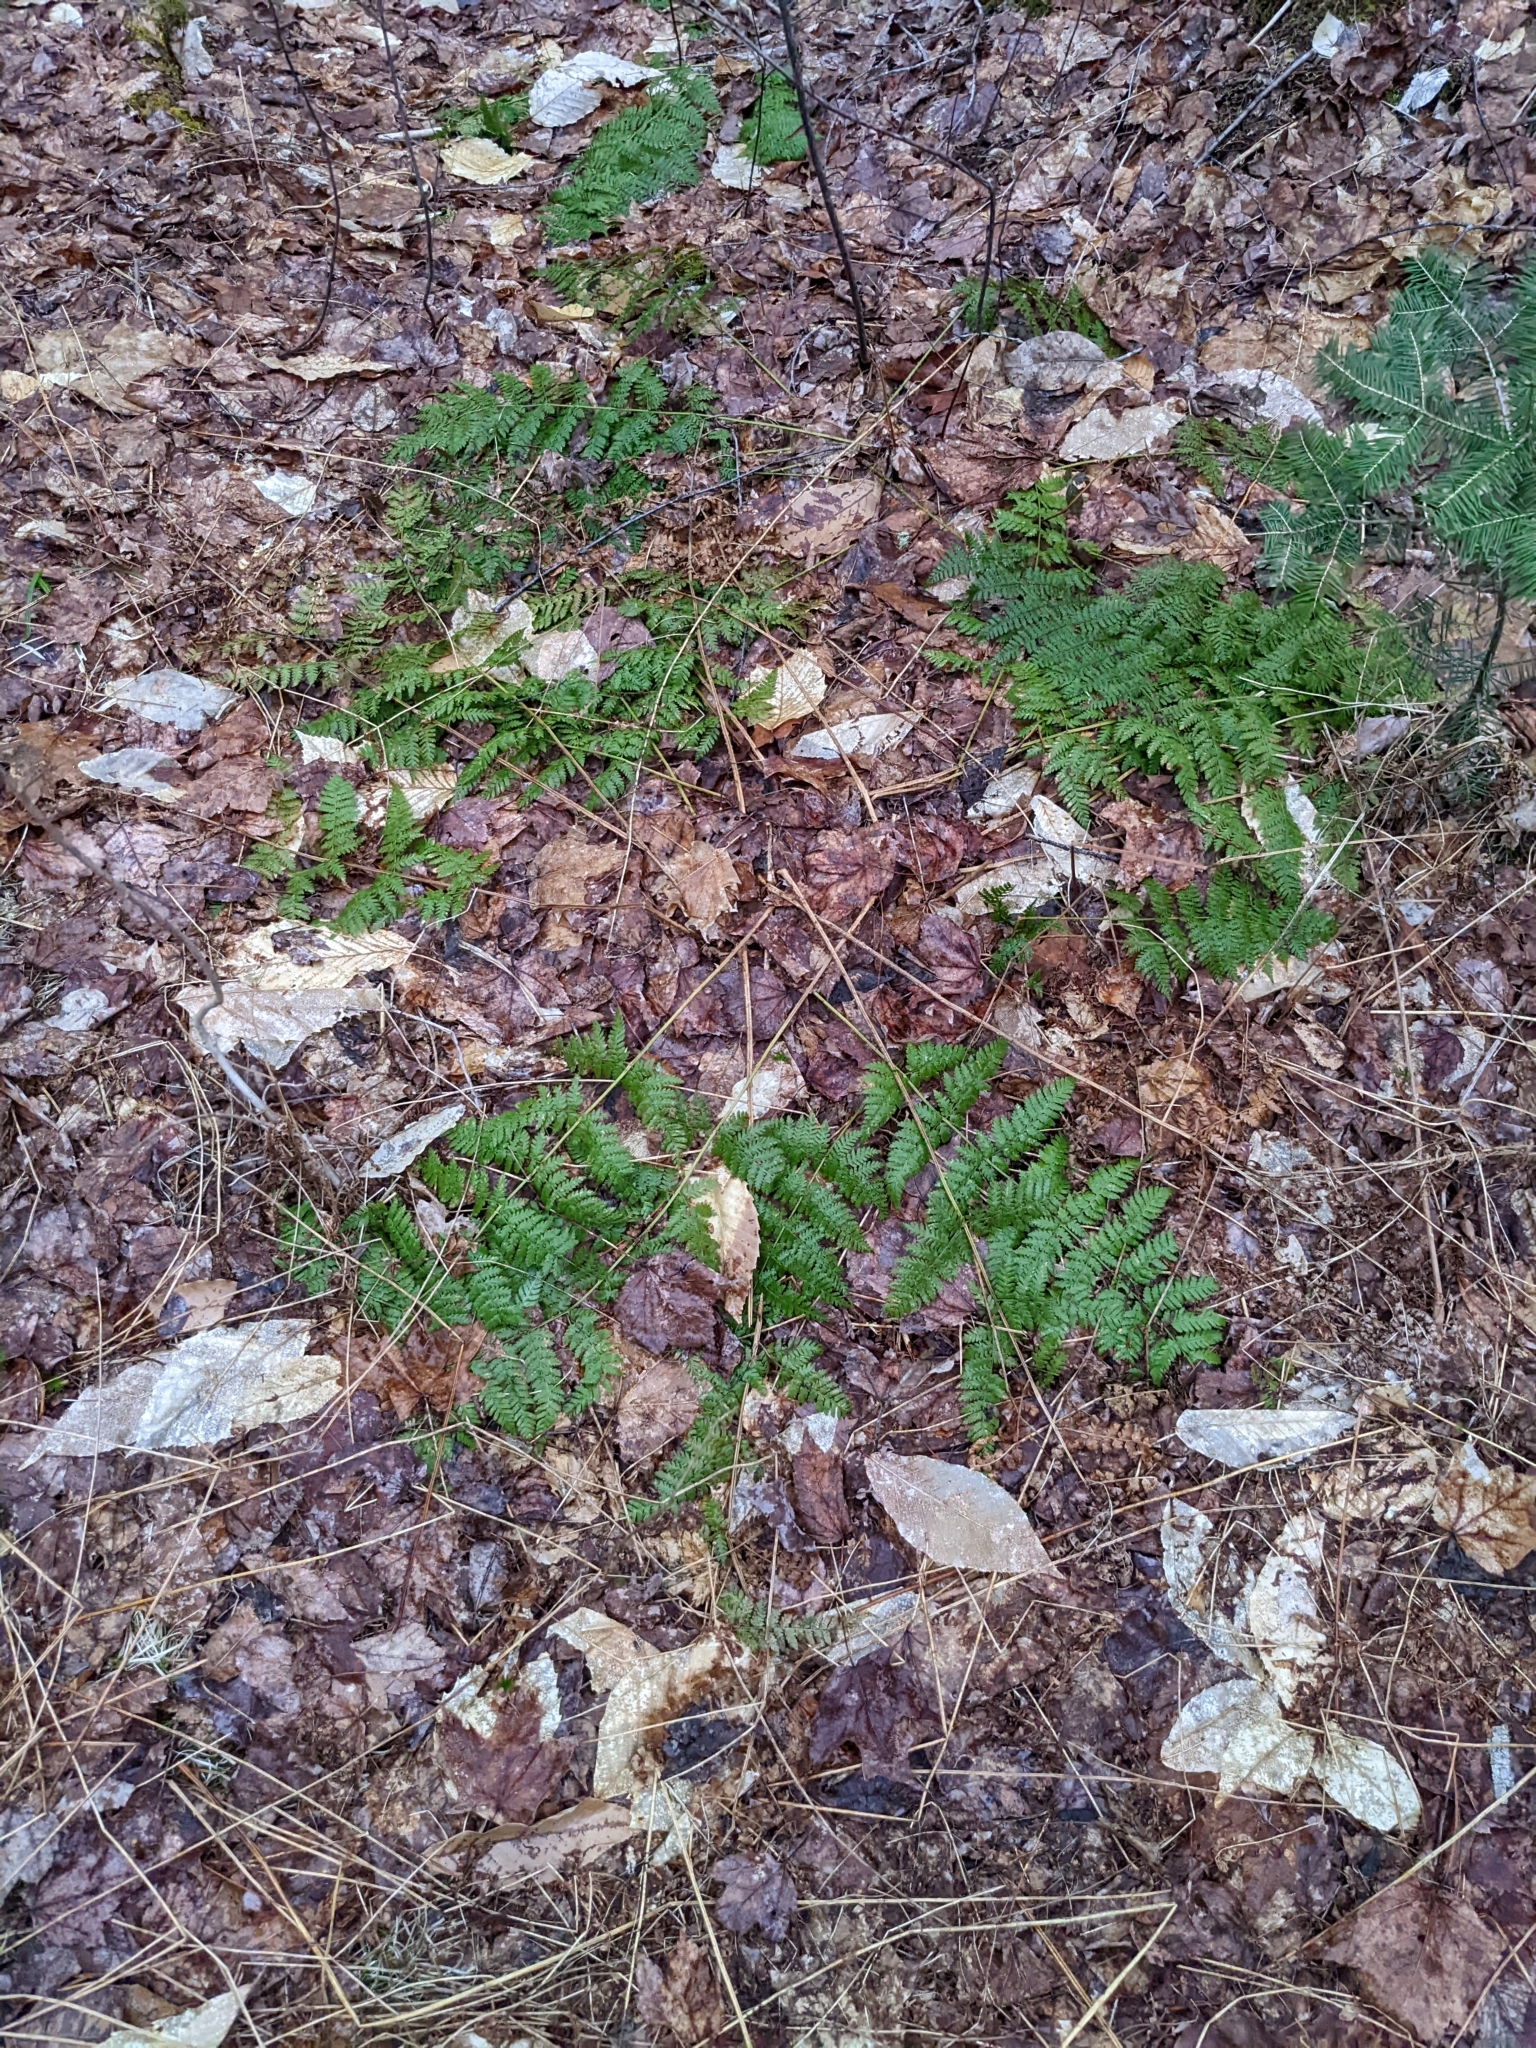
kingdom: Plantae
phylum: Tracheophyta
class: Polypodiopsida
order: Polypodiales
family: Dryopteridaceae
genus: Dryopteris
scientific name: Dryopteris intermedia
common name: Evergreen wood fern
